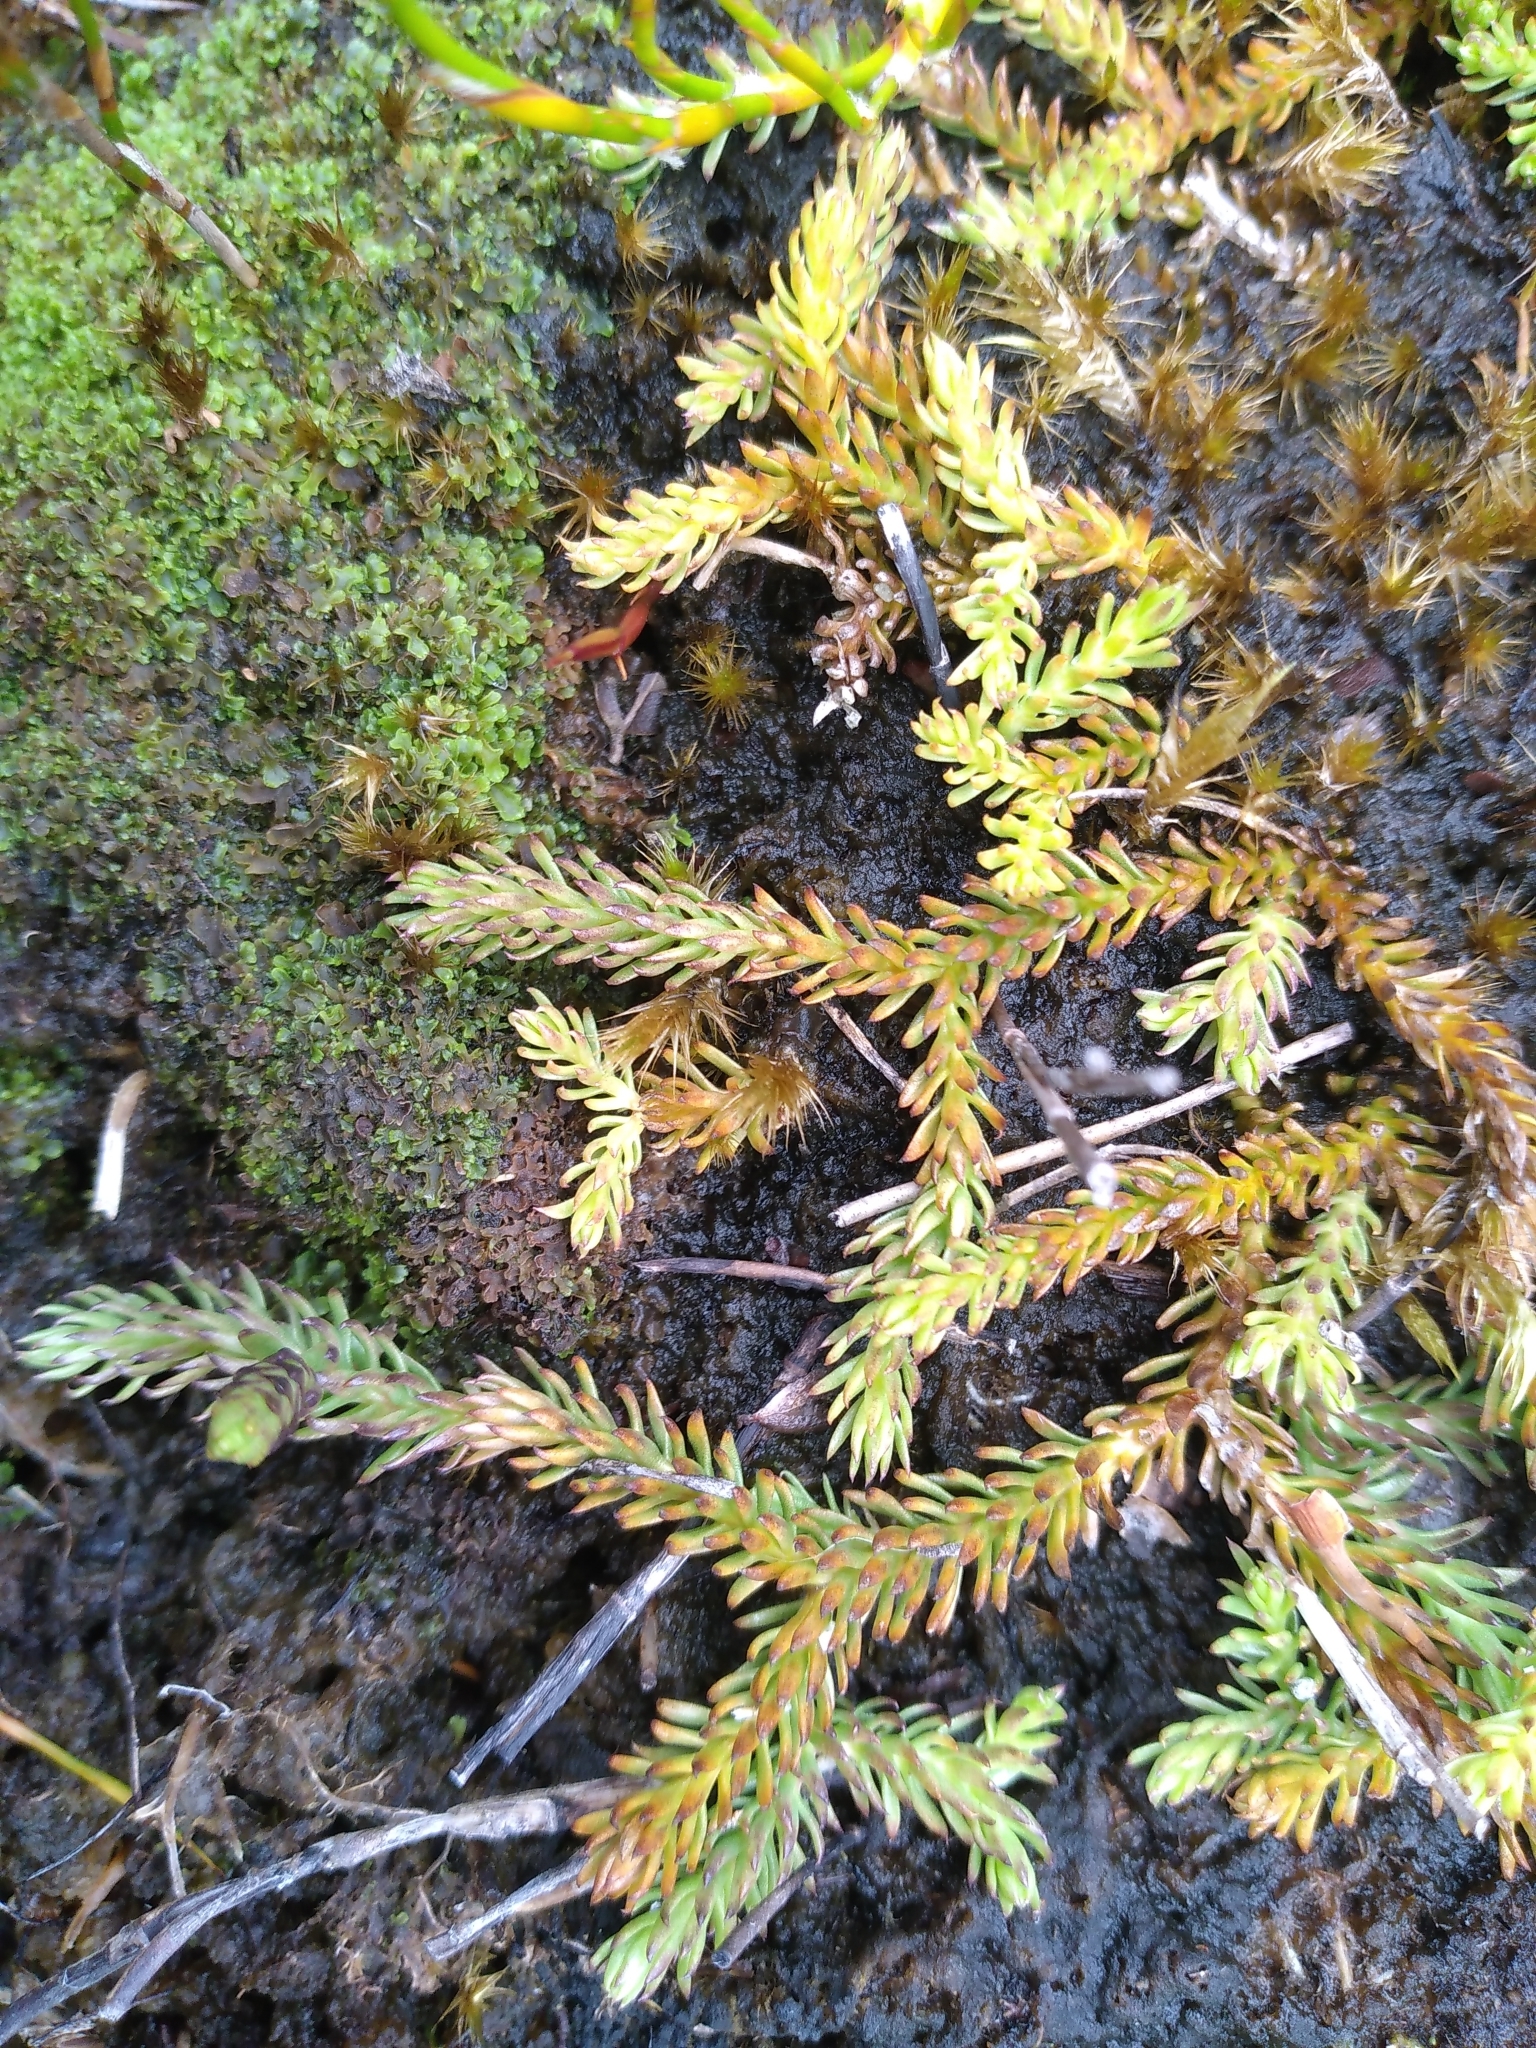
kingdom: Plantae
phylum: Tracheophyta
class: Lycopodiopsida
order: Lycopodiales
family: Lycopodiaceae
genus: Lateristachys
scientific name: Lateristachys diffusa
